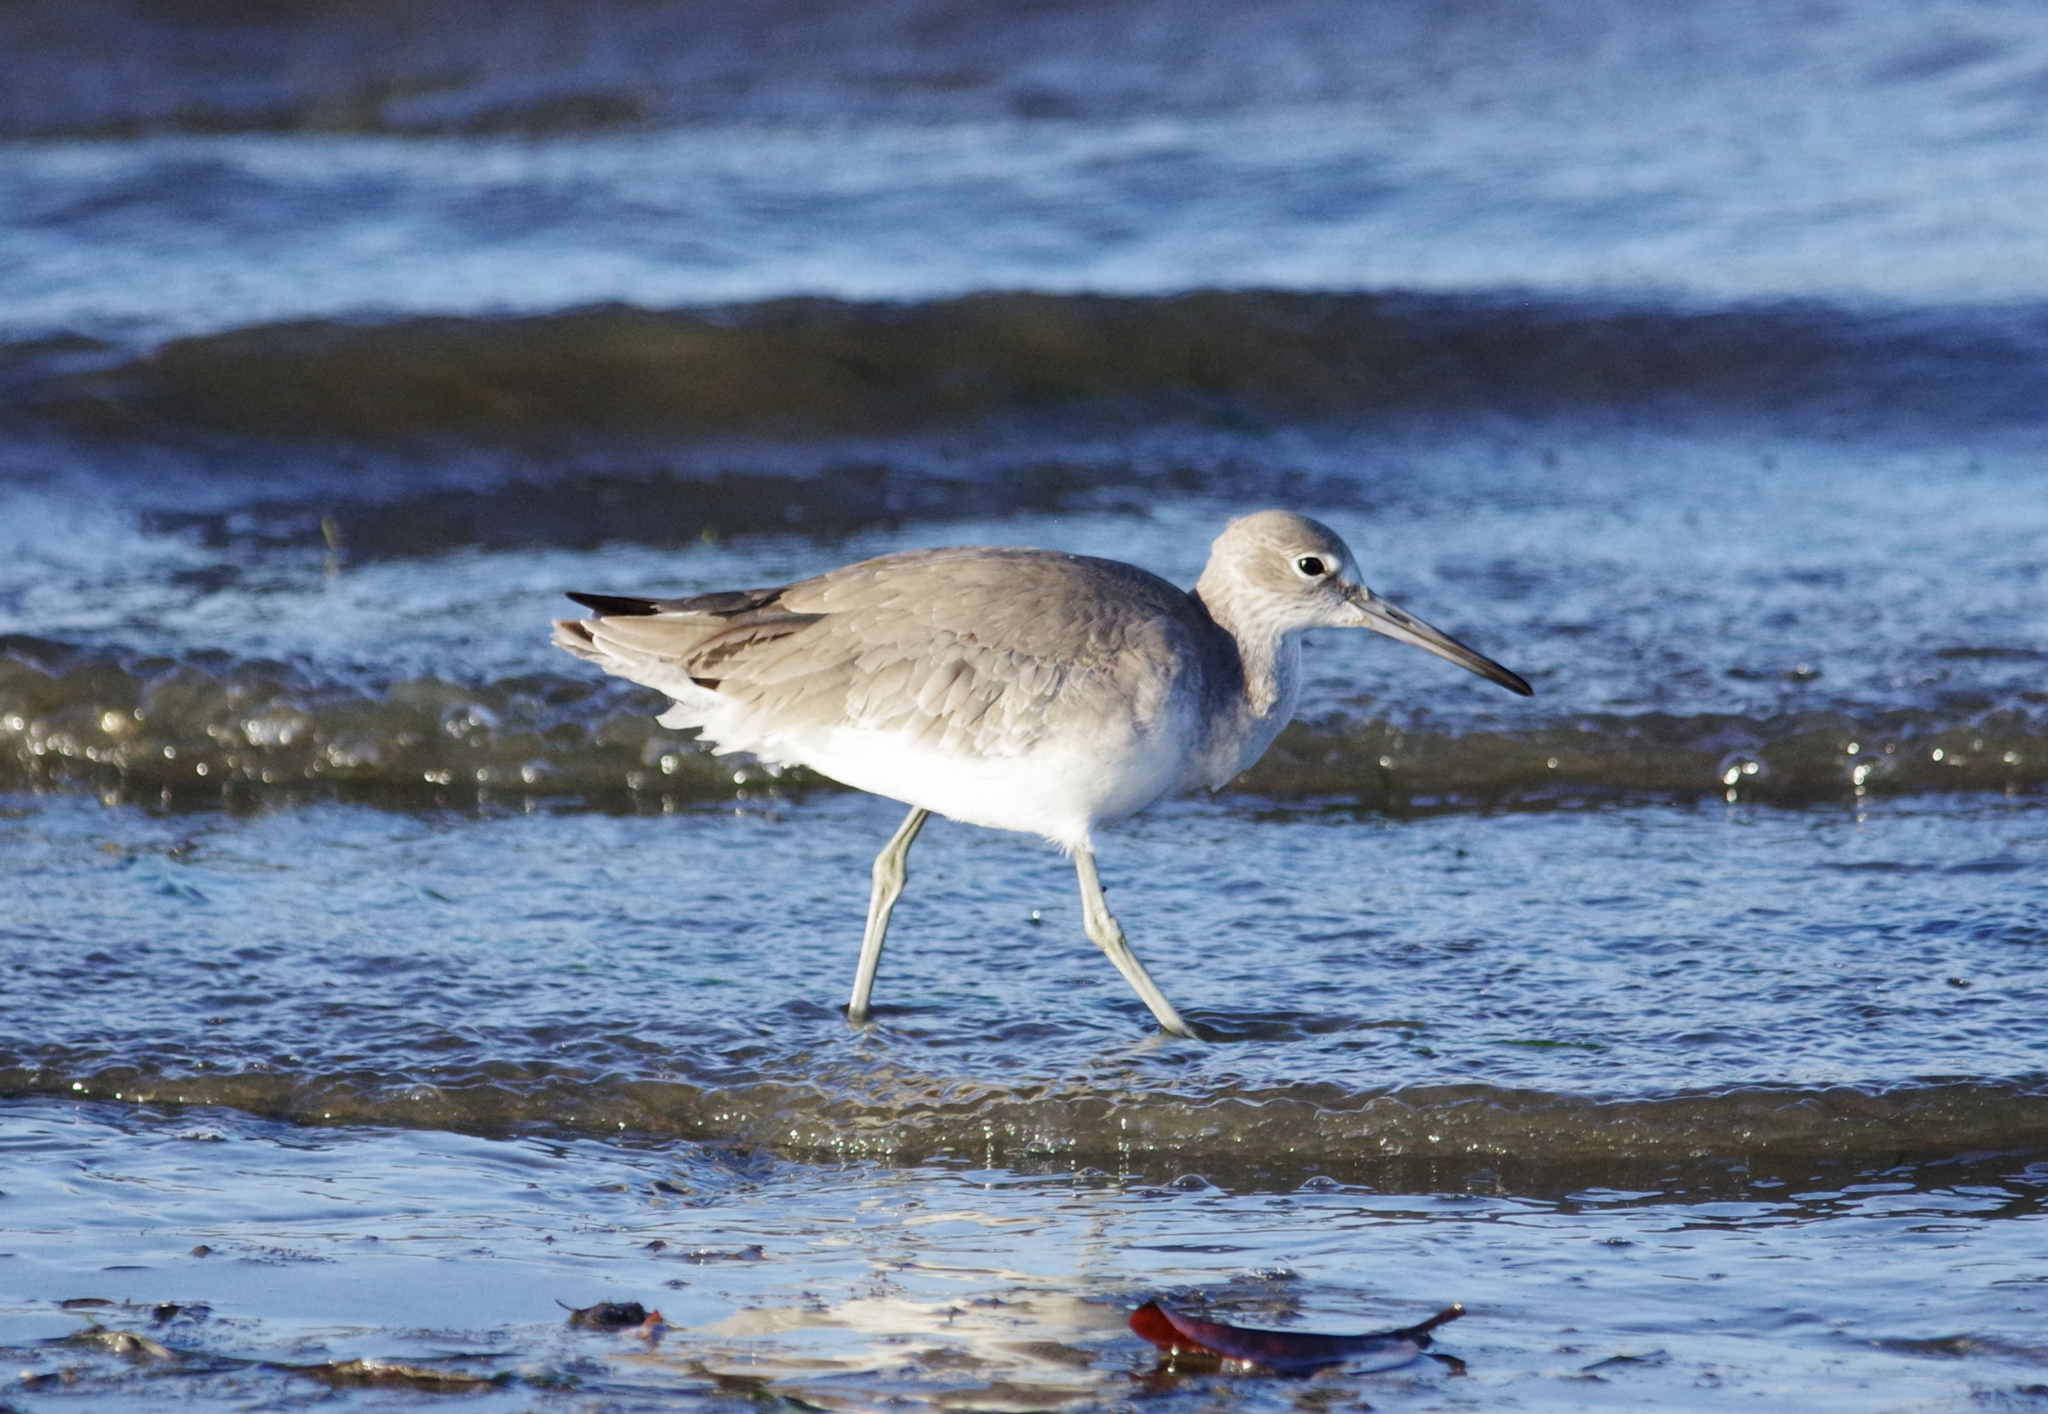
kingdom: Animalia
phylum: Chordata
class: Aves
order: Charadriiformes
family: Scolopacidae
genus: Tringa
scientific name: Tringa semipalmata
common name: Willet
